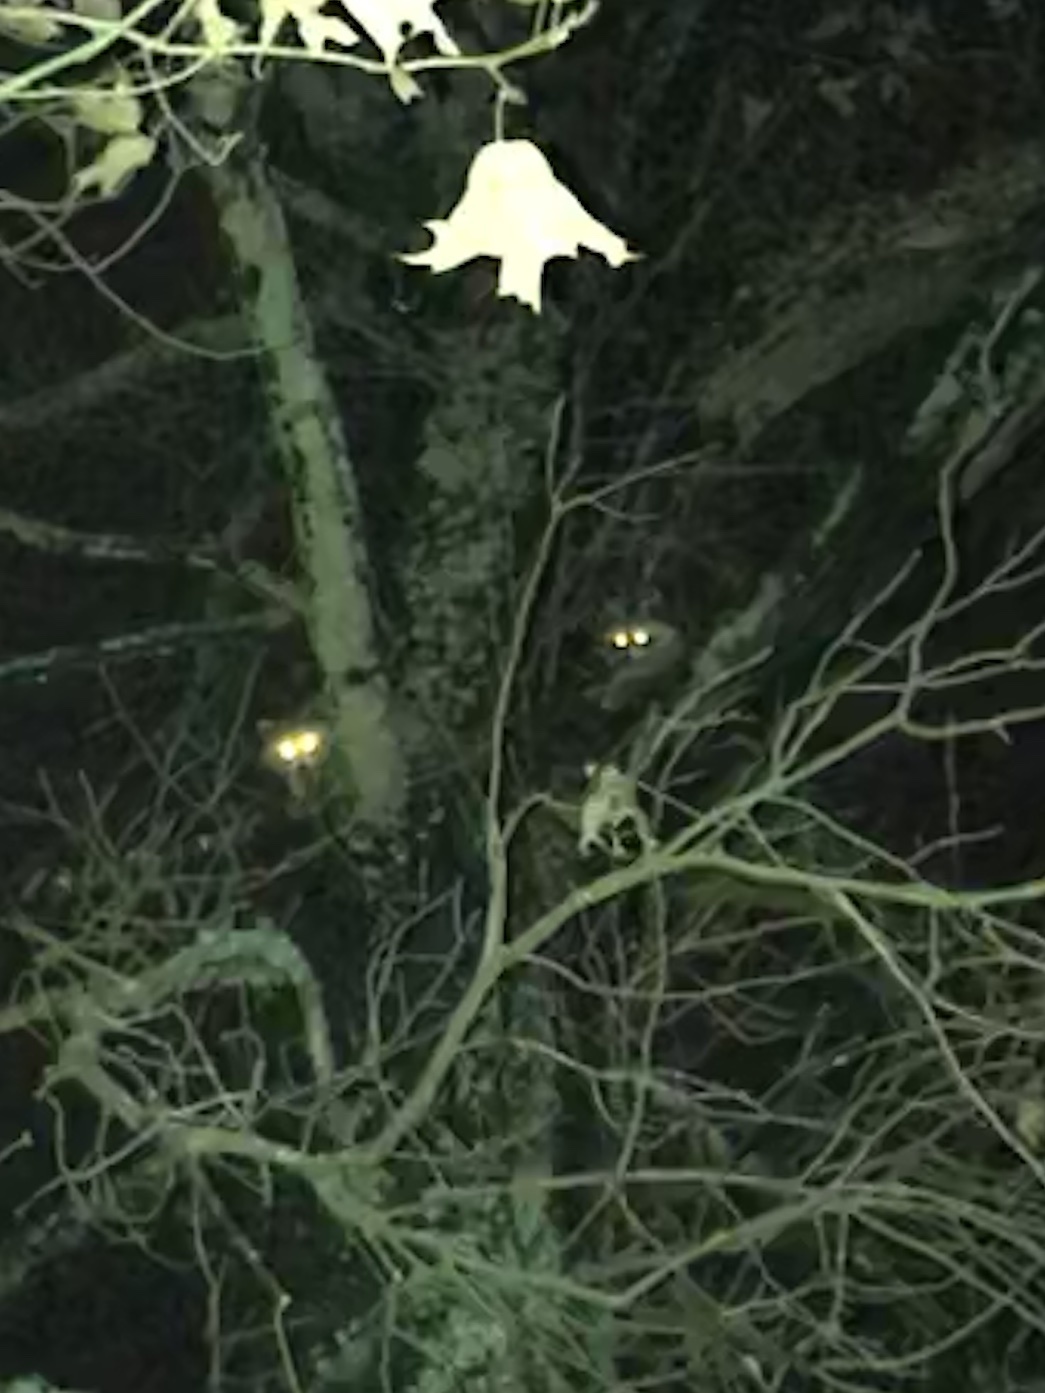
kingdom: Animalia
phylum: Chordata
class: Mammalia
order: Carnivora
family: Procyonidae
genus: Procyon
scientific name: Procyon lotor
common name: Raccoon
